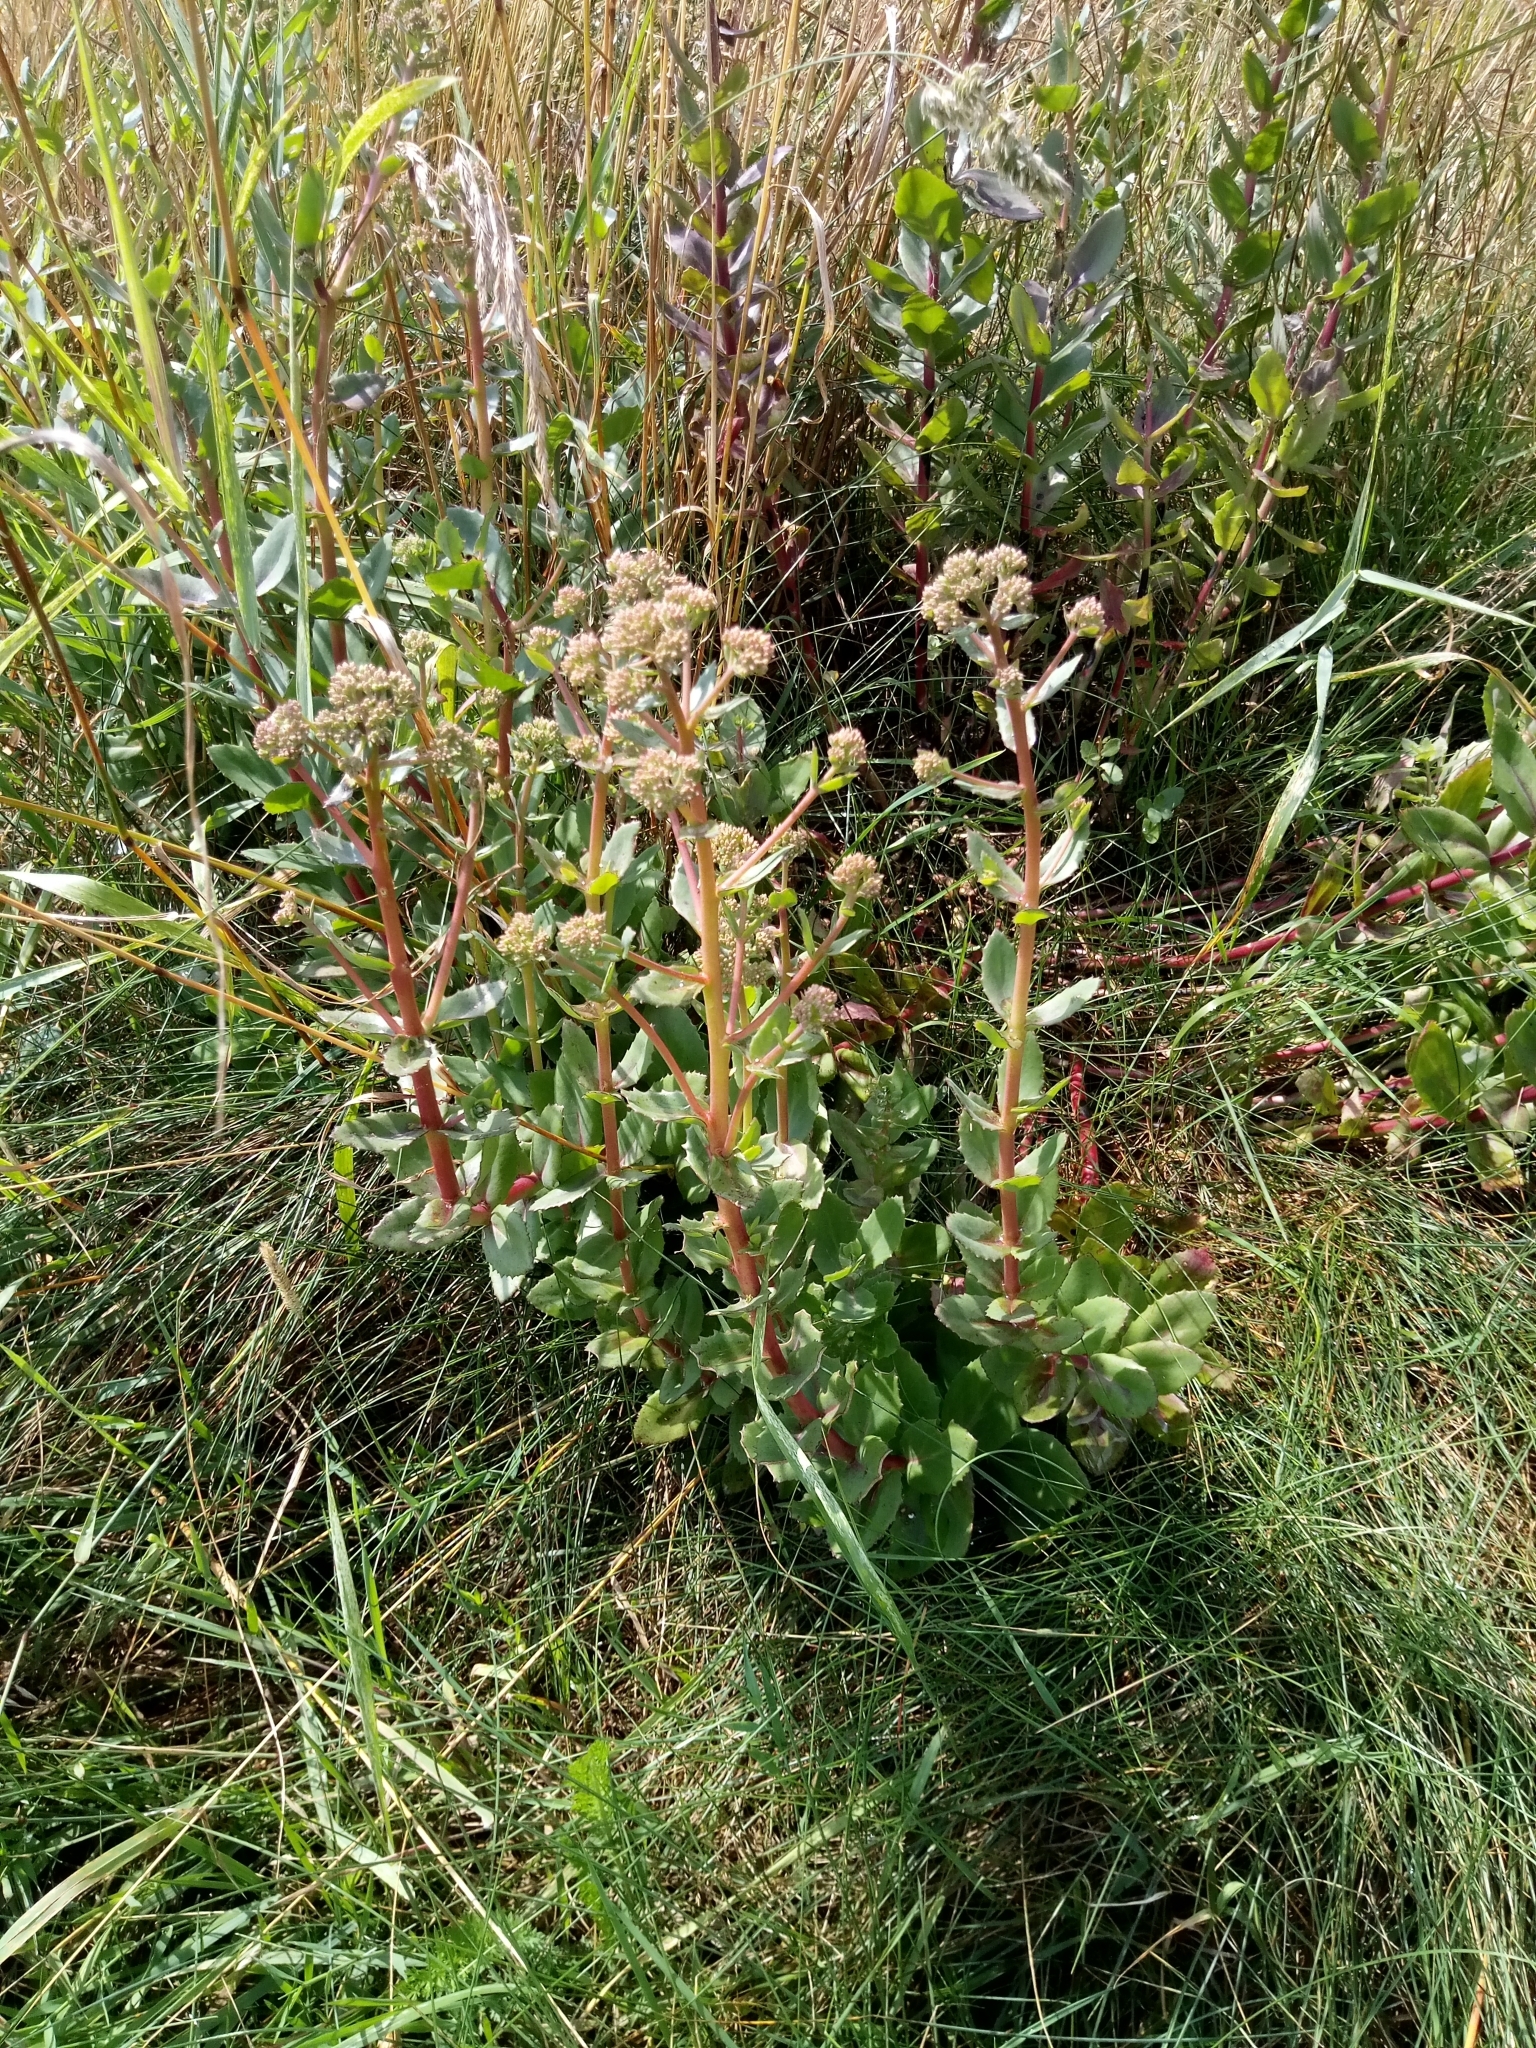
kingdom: Plantae
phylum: Tracheophyta
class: Magnoliopsida
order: Saxifragales
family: Crassulaceae
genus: Hylotelephium
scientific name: Hylotelephium maximum
